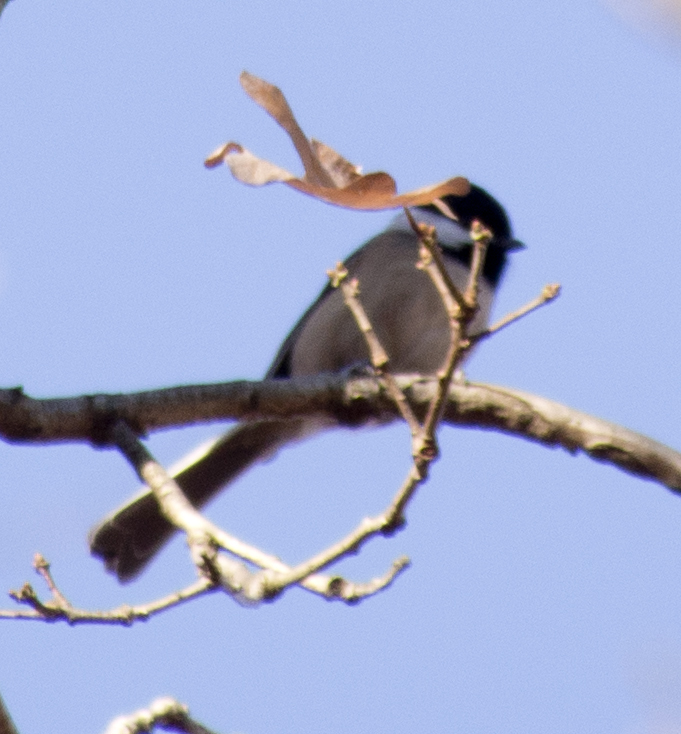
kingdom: Animalia
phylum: Chordata
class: Aves
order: Passeriformes
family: Paridae
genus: Poecile
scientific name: Poecile
